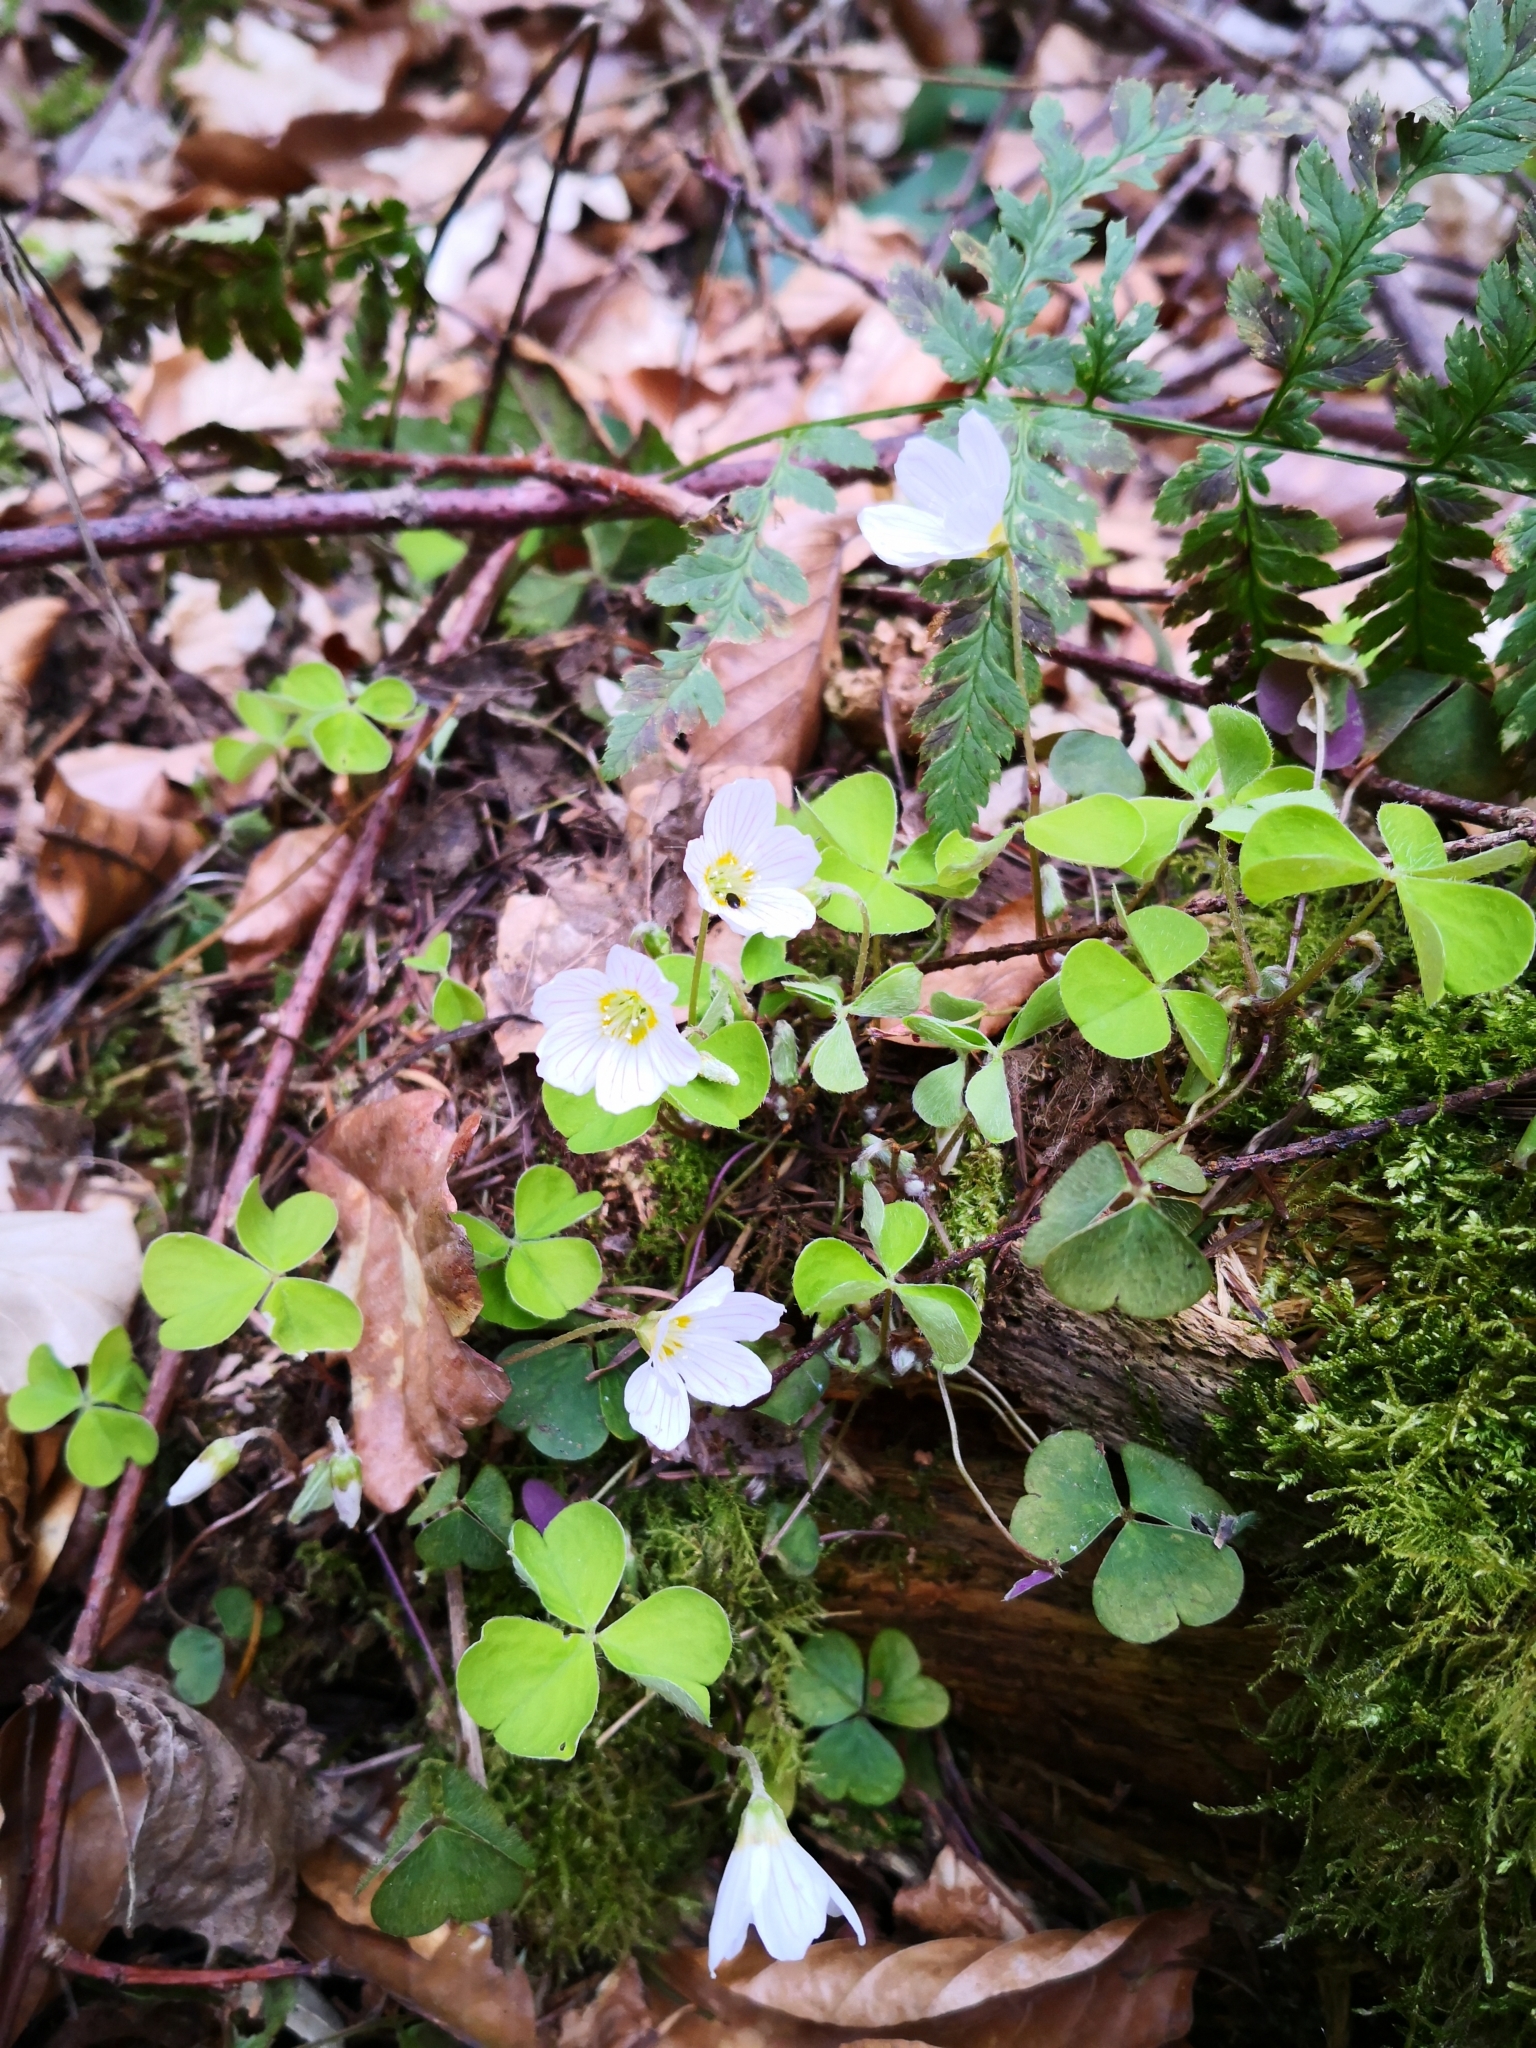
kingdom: Plantae
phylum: Tracheophyta
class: Magnoliopsida
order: Oxalidales
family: Oxalidaceae
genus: Oxalis
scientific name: Oxalis acetosella
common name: Wood-sorrel
